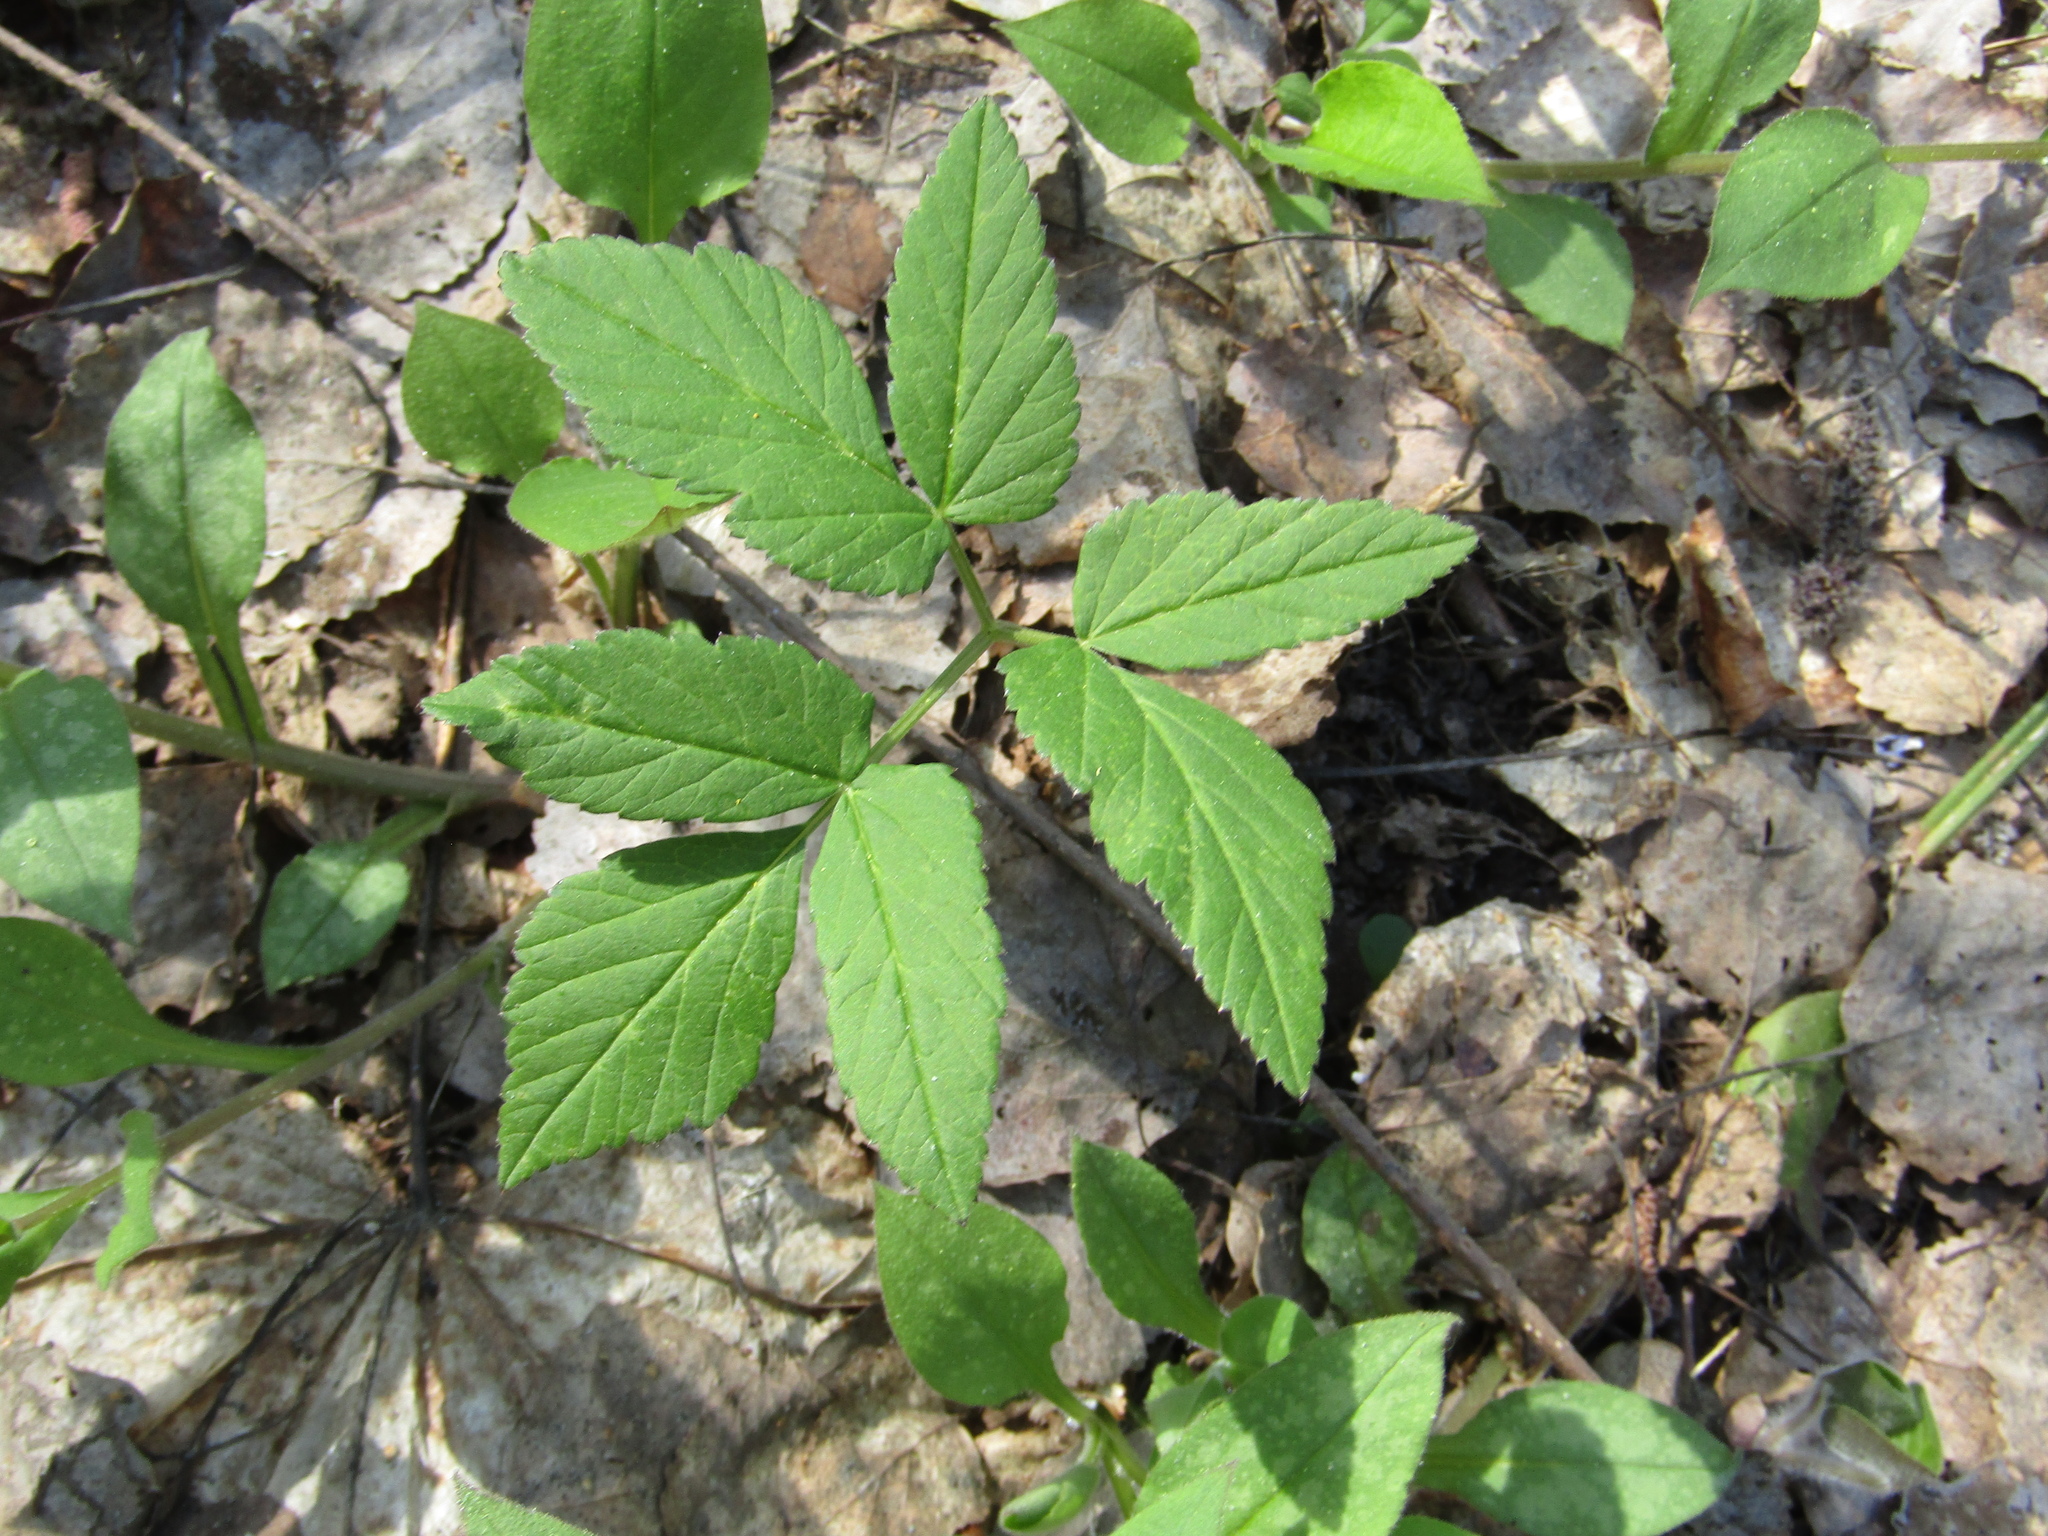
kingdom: Plantae
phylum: Tracheophyta
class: Magnoliopsida
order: Apiales
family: Apiaceae
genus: Aegopodium
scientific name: Aegopodium podagraria
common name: Ground-elder
